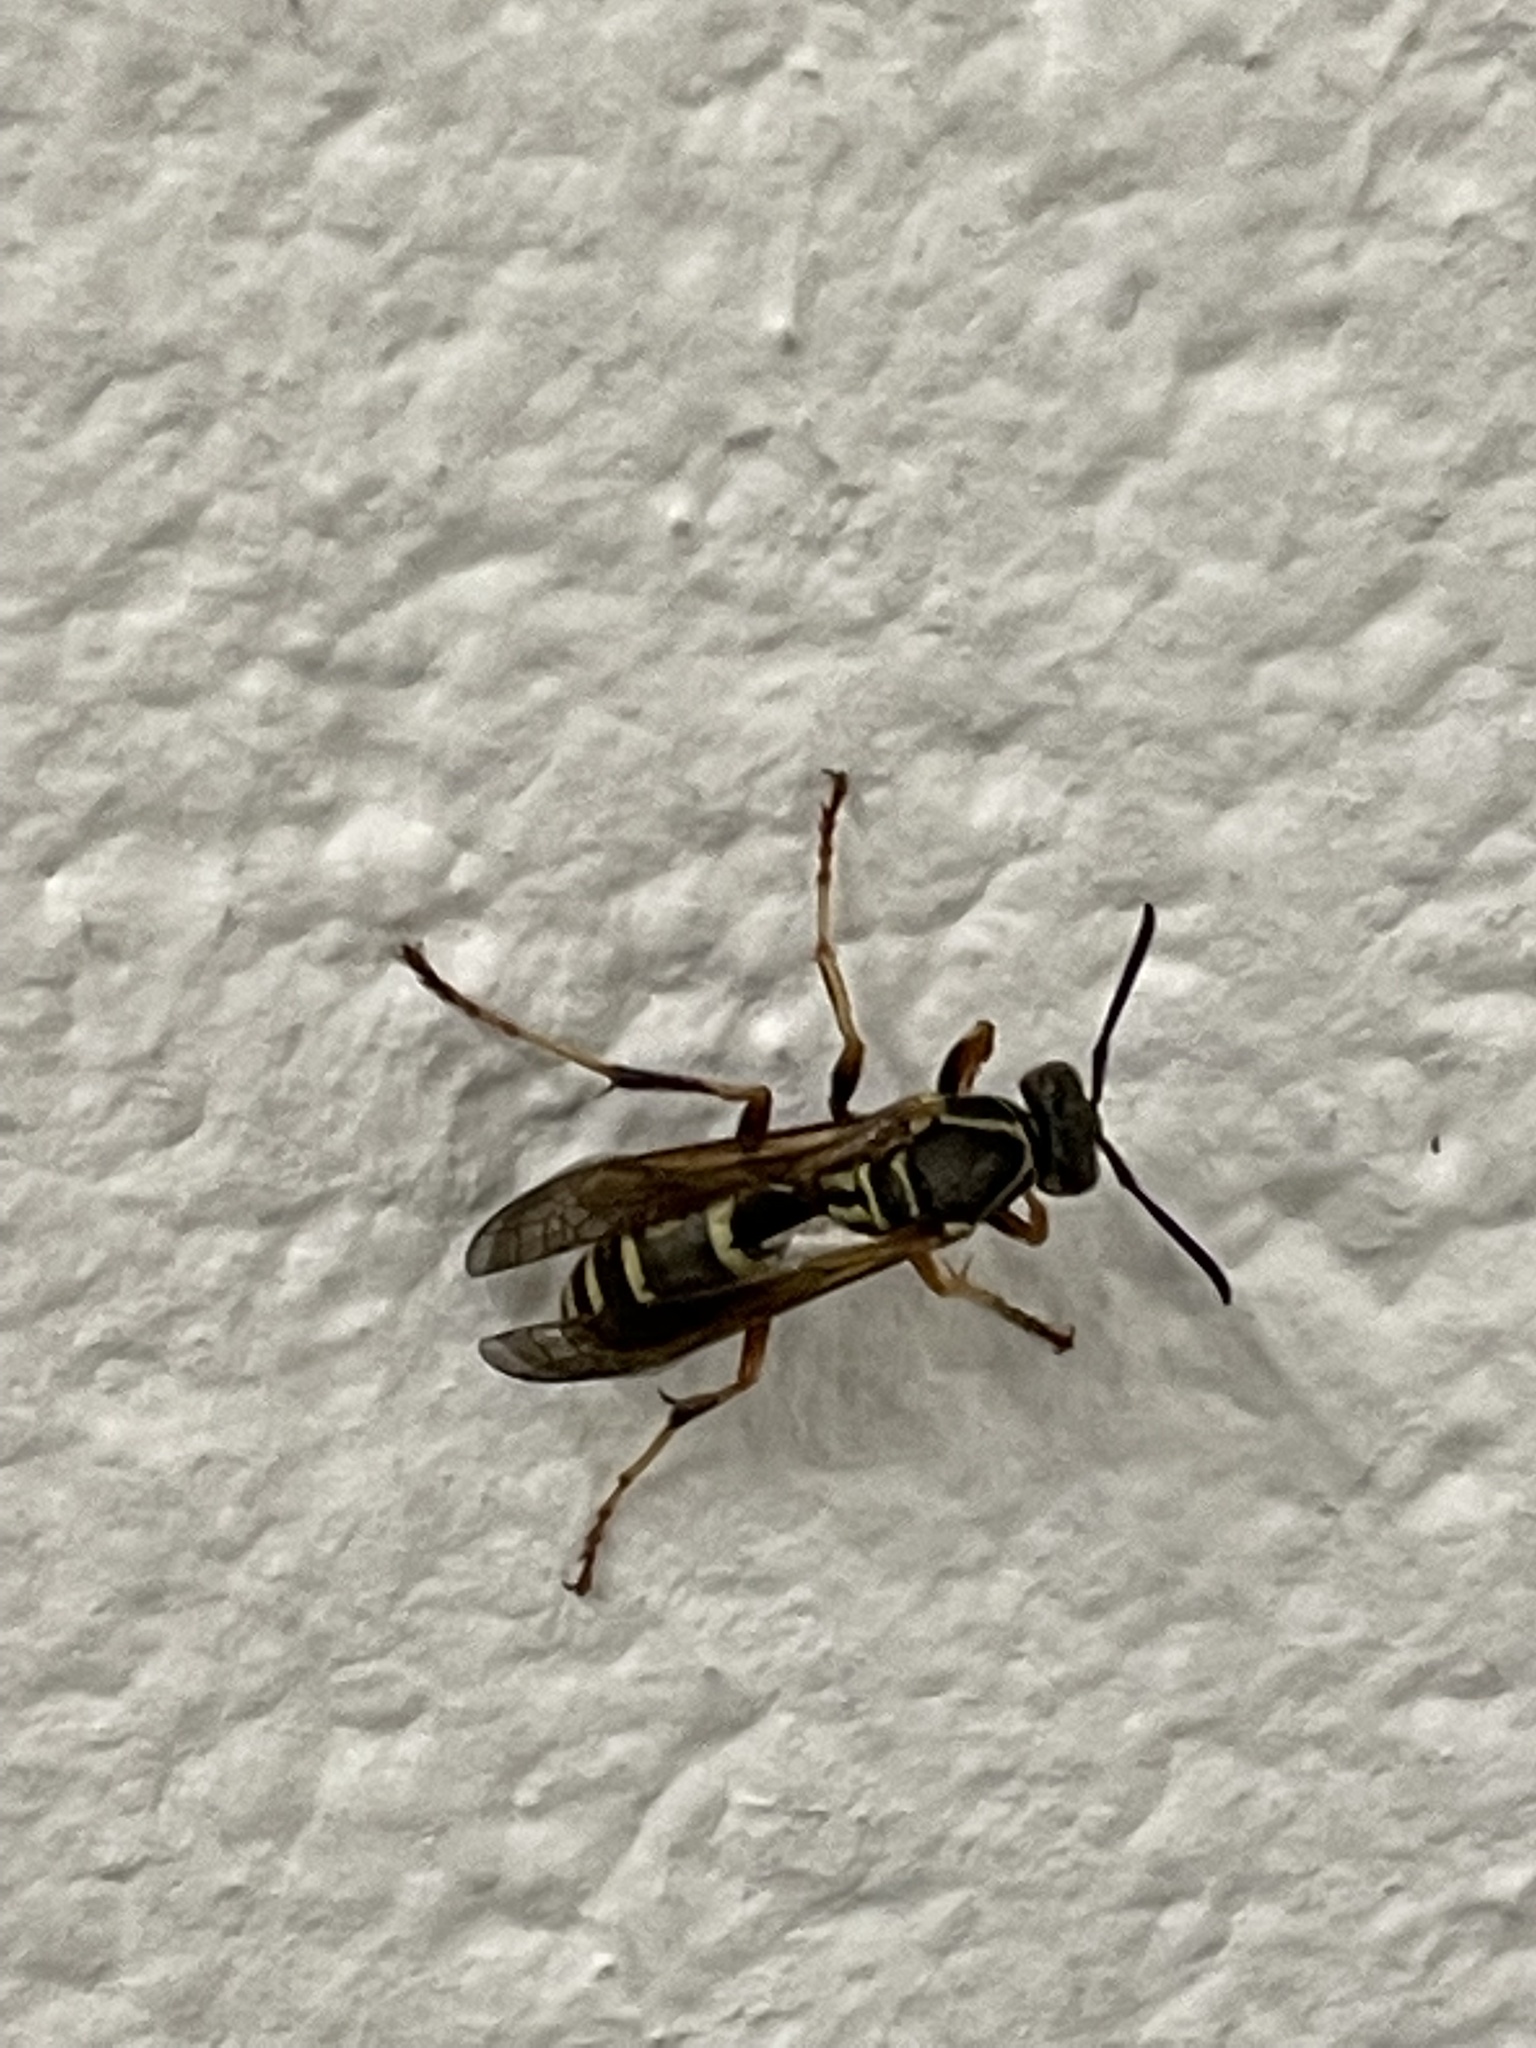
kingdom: Animalia
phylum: Arthropoda
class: Insecta
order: Hymenoptera
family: Eumenidae
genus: Polistes
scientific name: Polistes fuscatus
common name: Dark paper wasp
